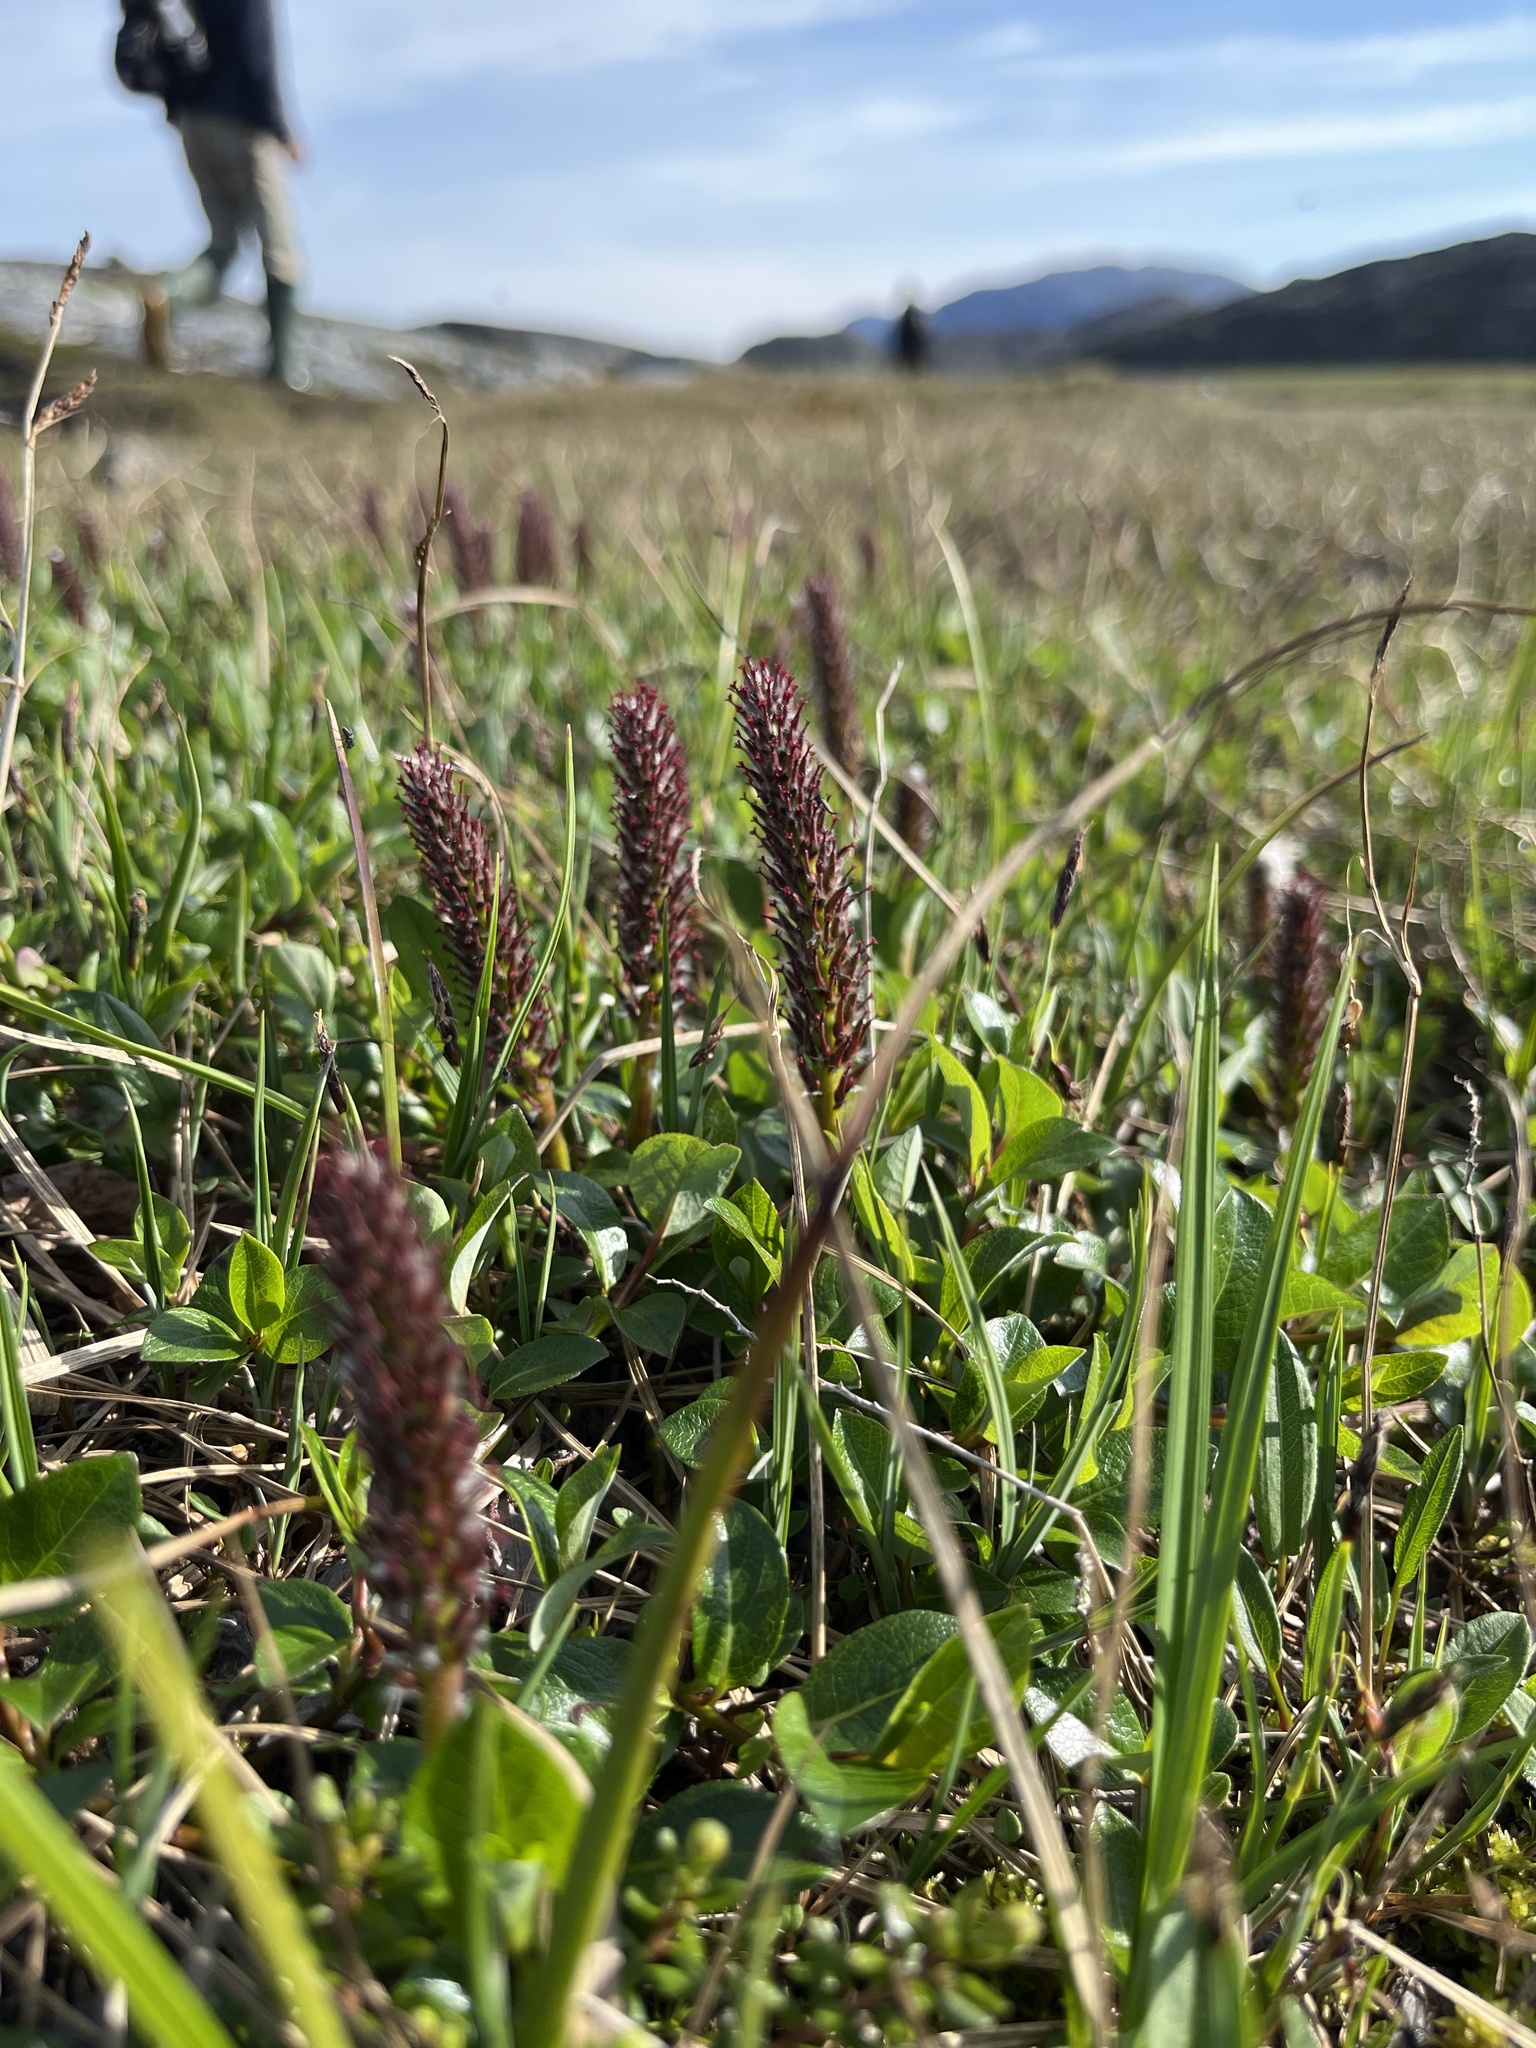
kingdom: Plantae
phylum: Tracheophyta
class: Magnoliopsida
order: Malpighiales
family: Salicaceae
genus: Salix
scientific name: Salix arctophila
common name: Greenland willow
